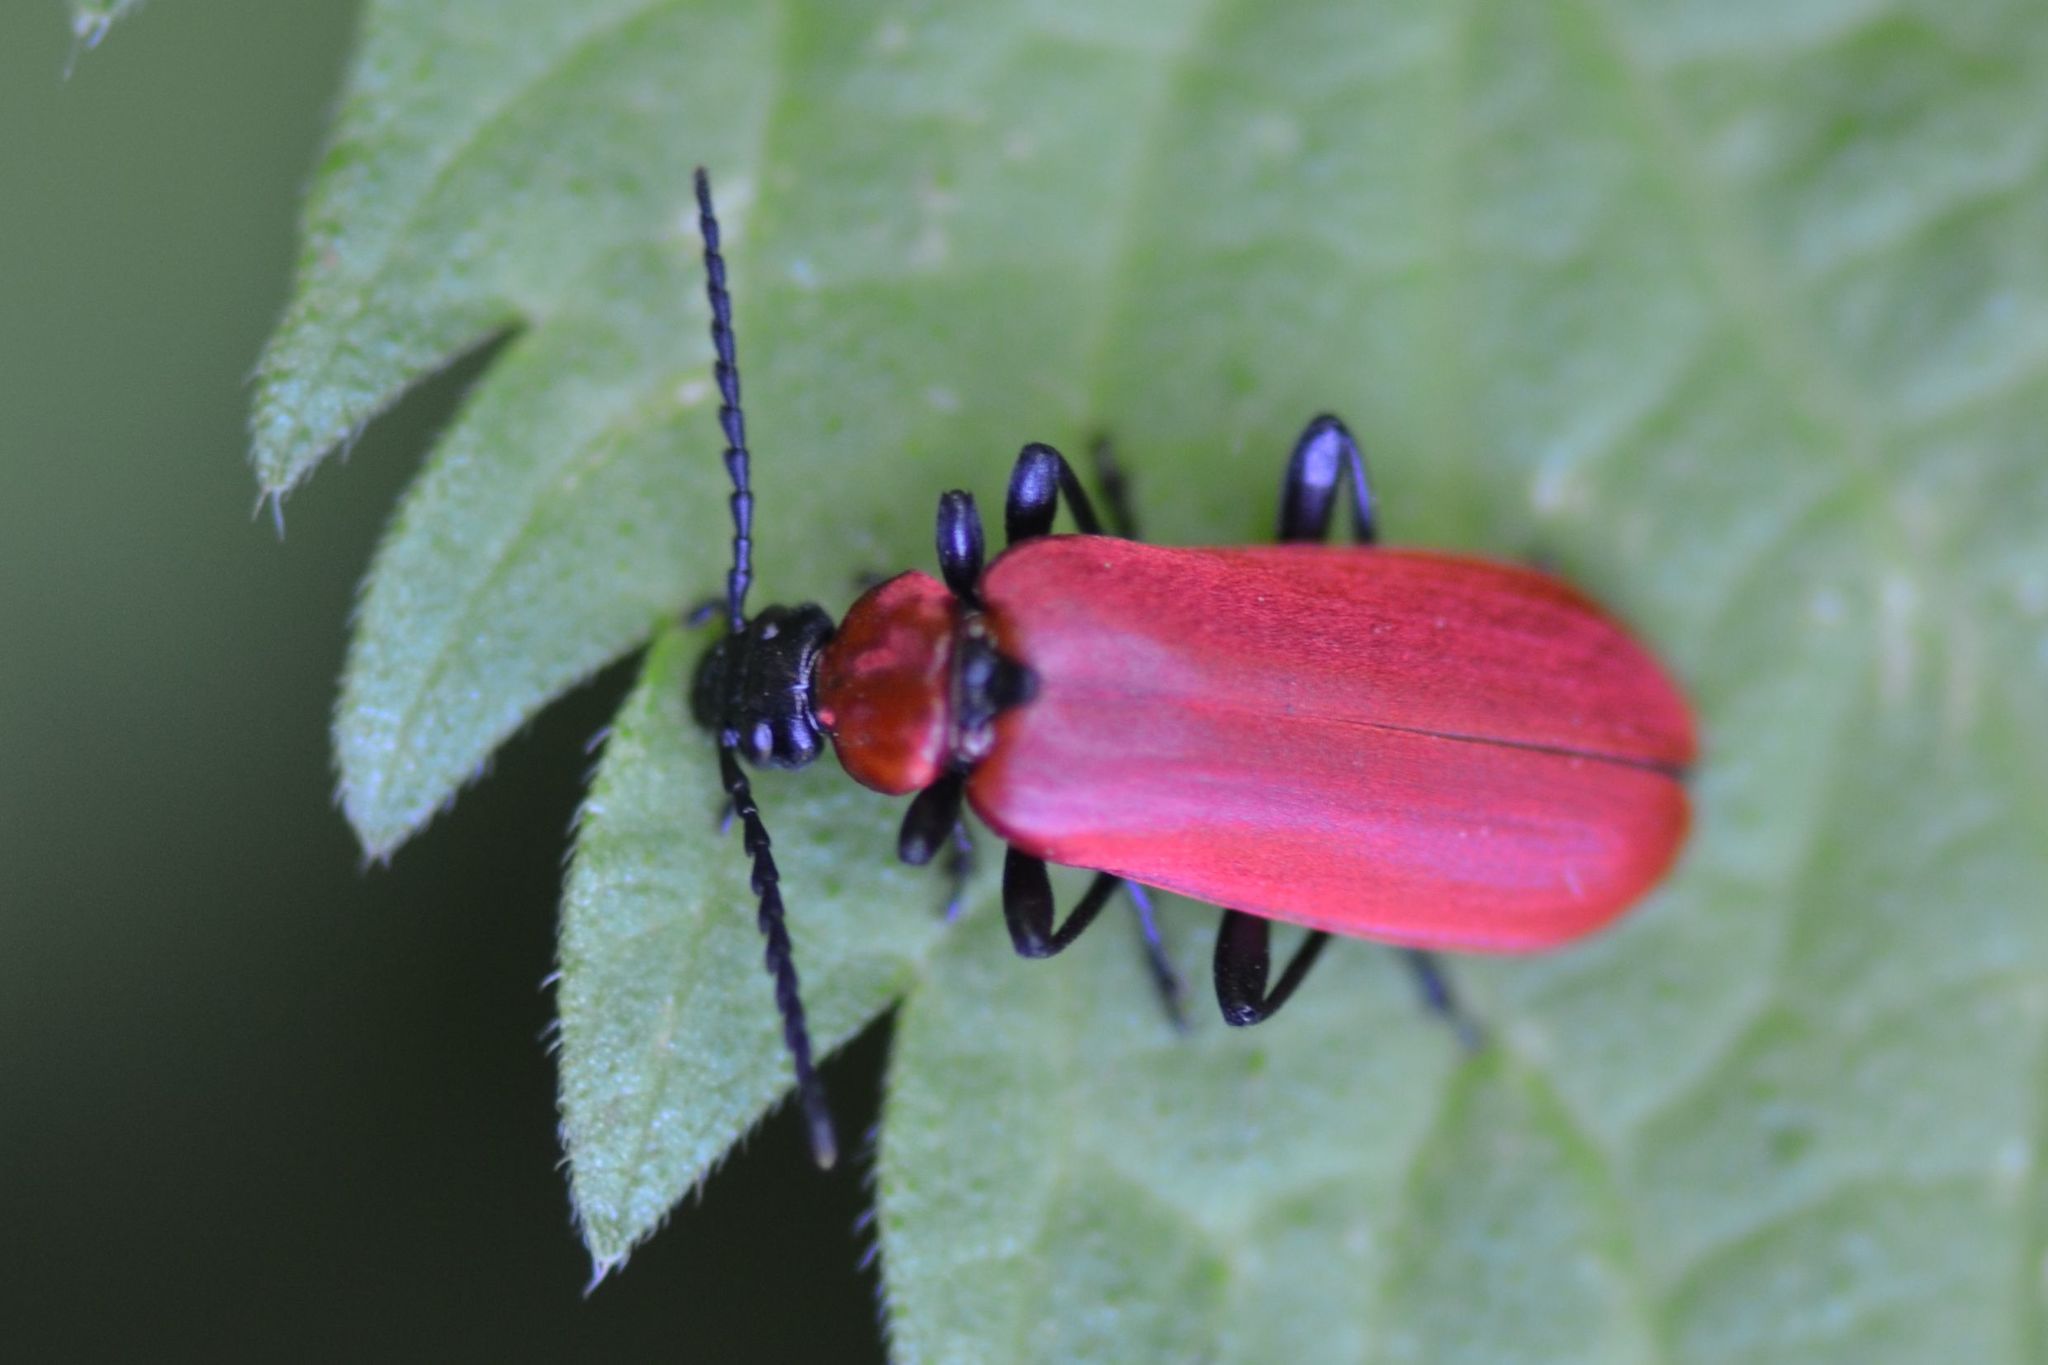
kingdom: Animalia
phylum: Arthropoda
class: Insecta
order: Coleoptera
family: Pyrochroidae
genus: Pyrochroa
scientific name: Pyrochroa coccinea
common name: Black-headed cardinal beetle
